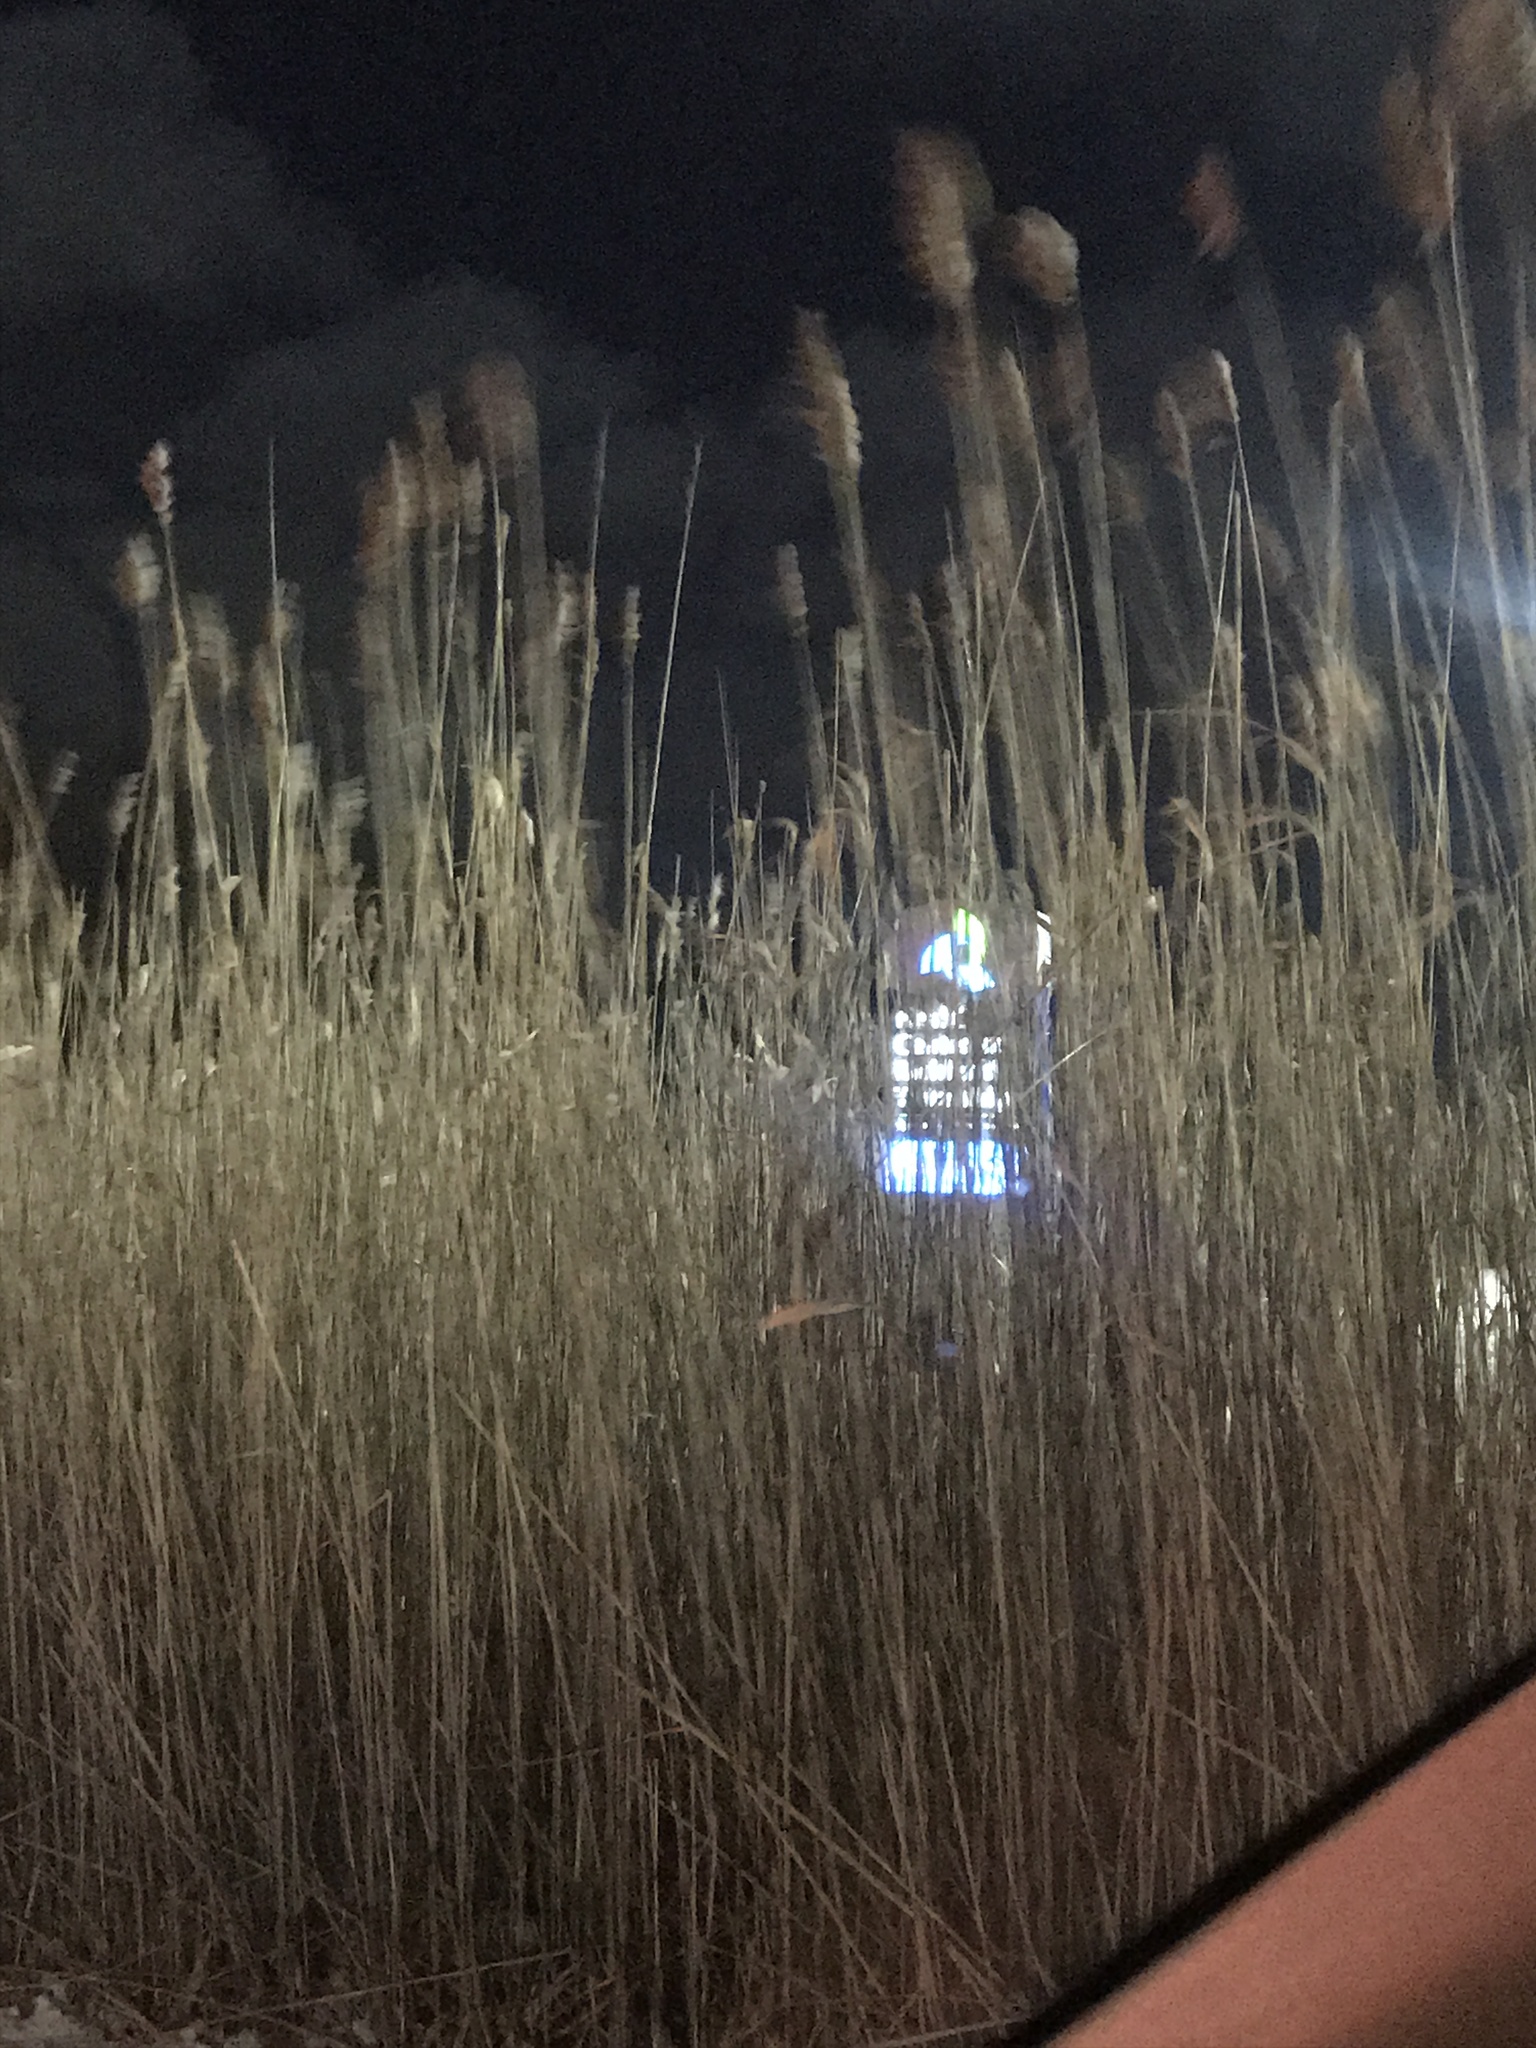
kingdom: Plantae
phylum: Tracheophyta
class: Liliopsida
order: Poales
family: Poaceae
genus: Phragmites
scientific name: Phragmites australis
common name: Common reed
